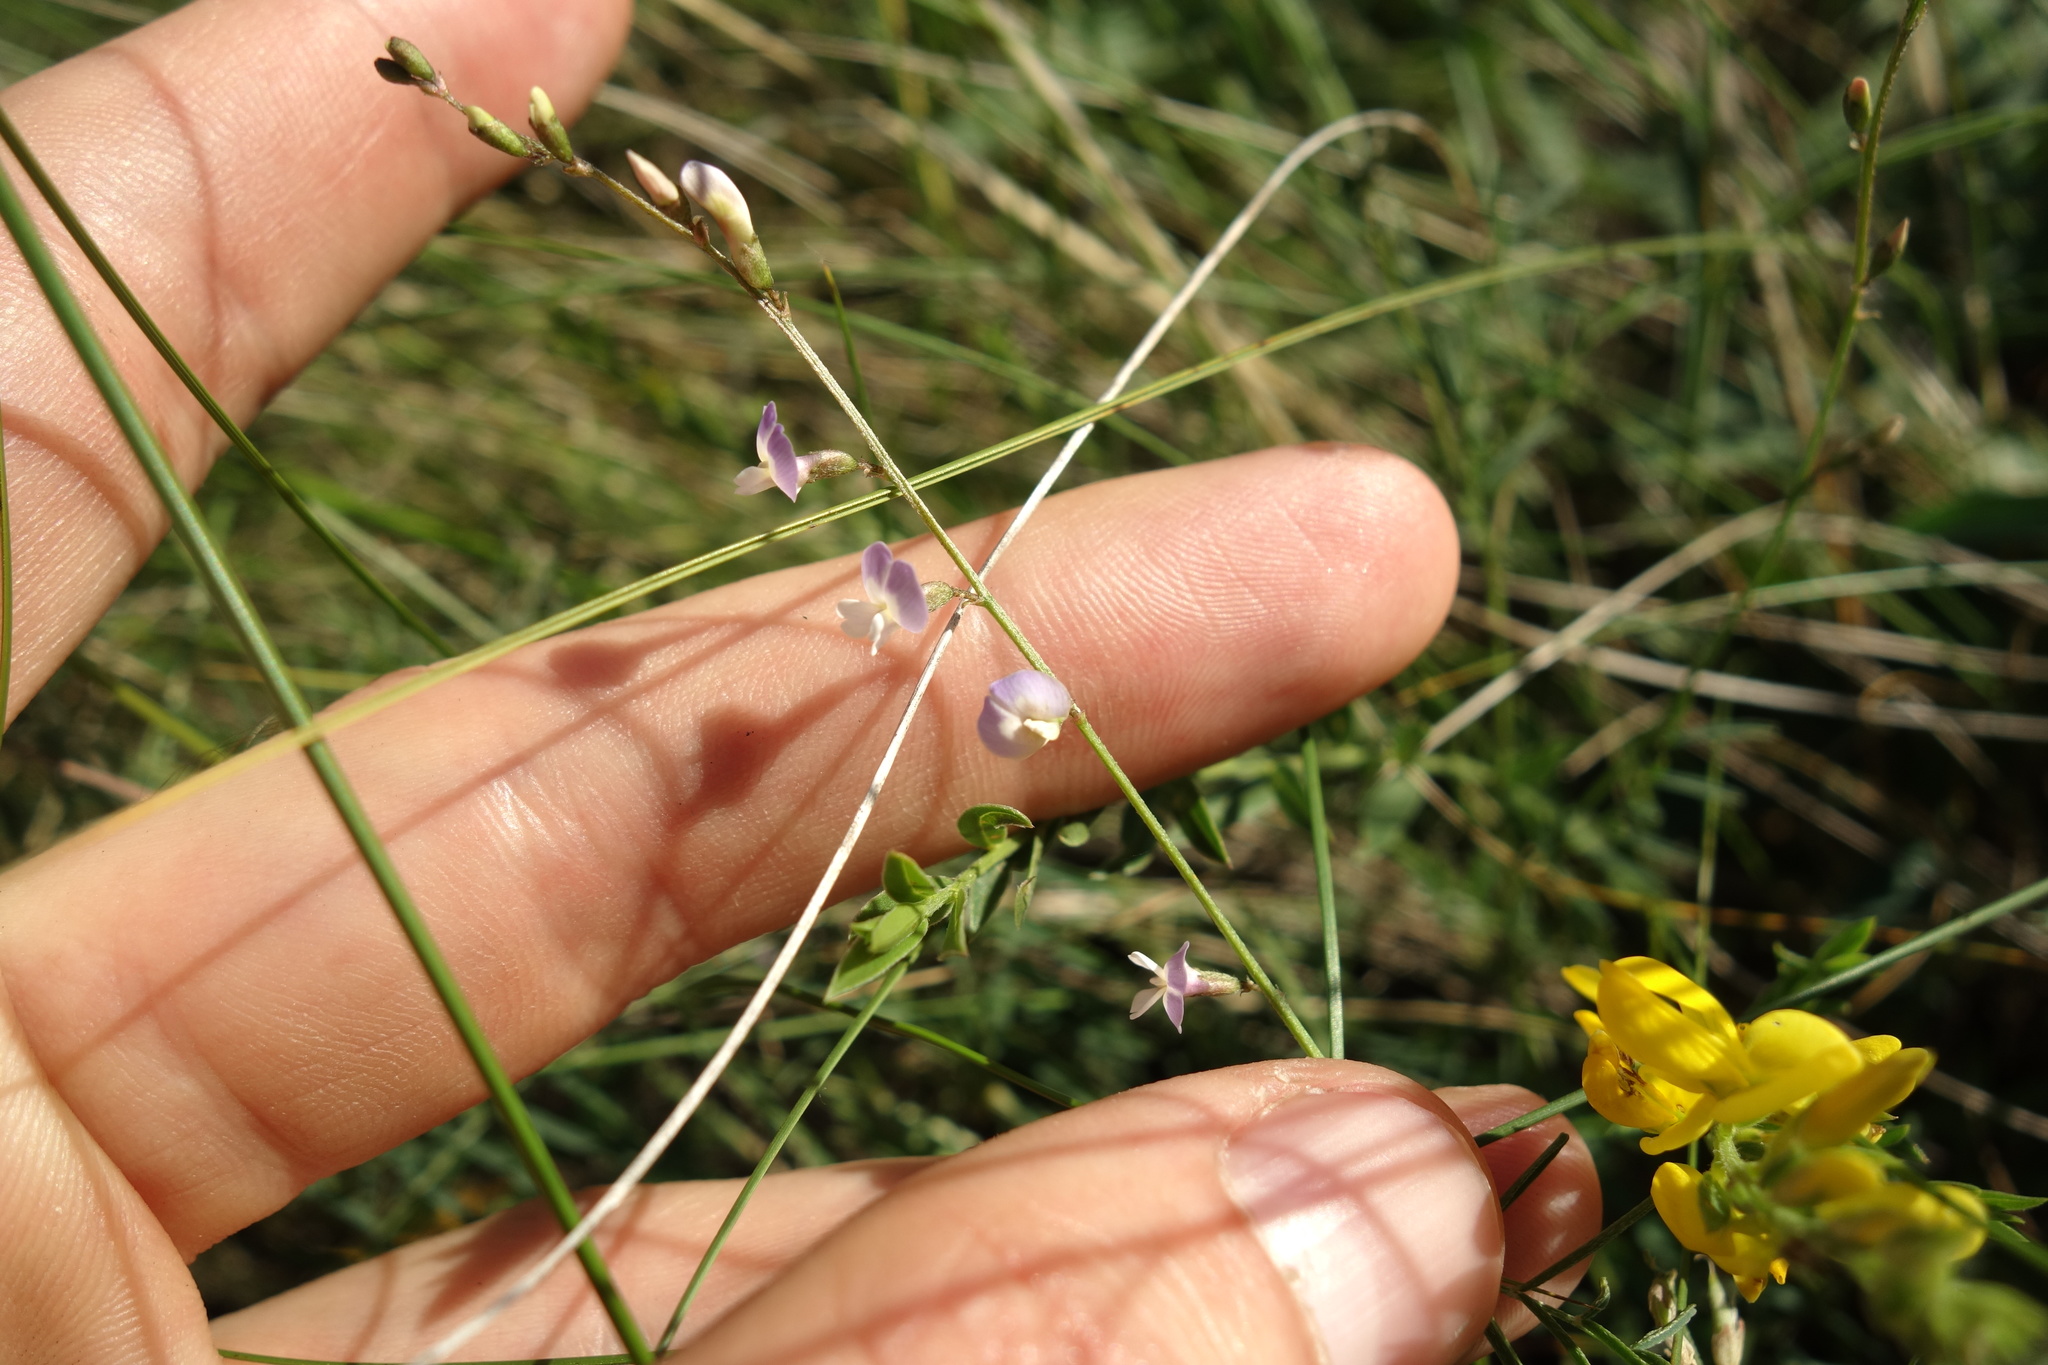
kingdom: Plantae
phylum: Tracheophyta
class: Magnoliopsida
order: Fabales
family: Fabaceae
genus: Astragalus
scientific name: Astragalus austriacus
